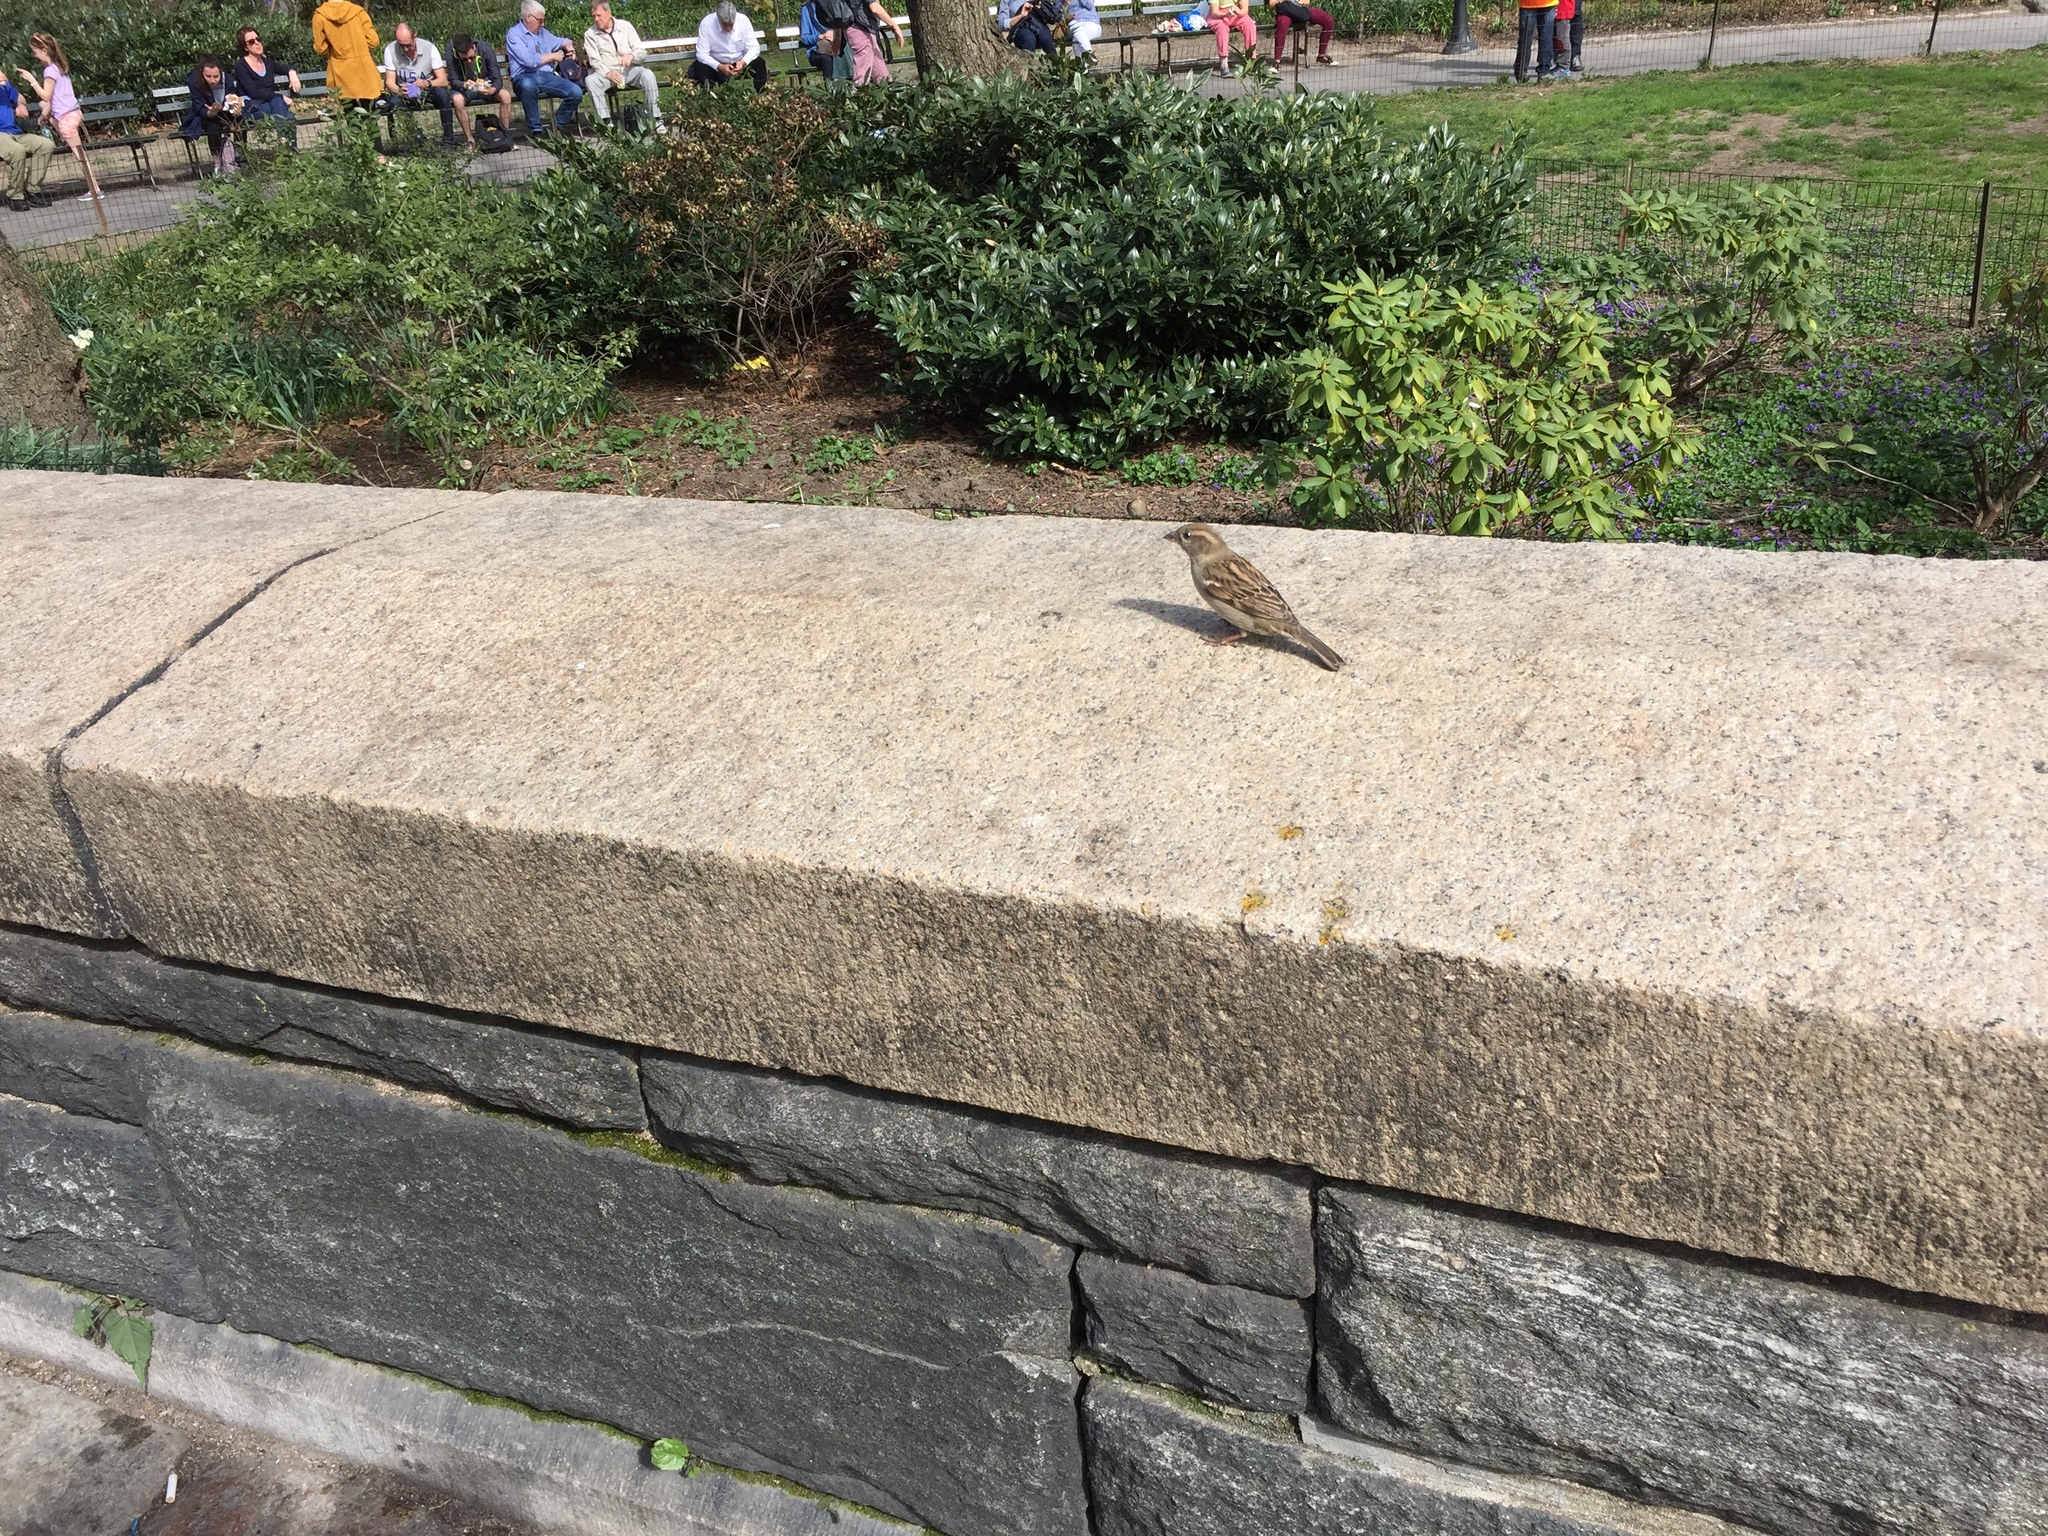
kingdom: Animalia
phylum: Chordata
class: Aves
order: Passeriformes
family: Passeridae
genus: Passer
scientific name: Passer domesticus
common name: House sparrow
